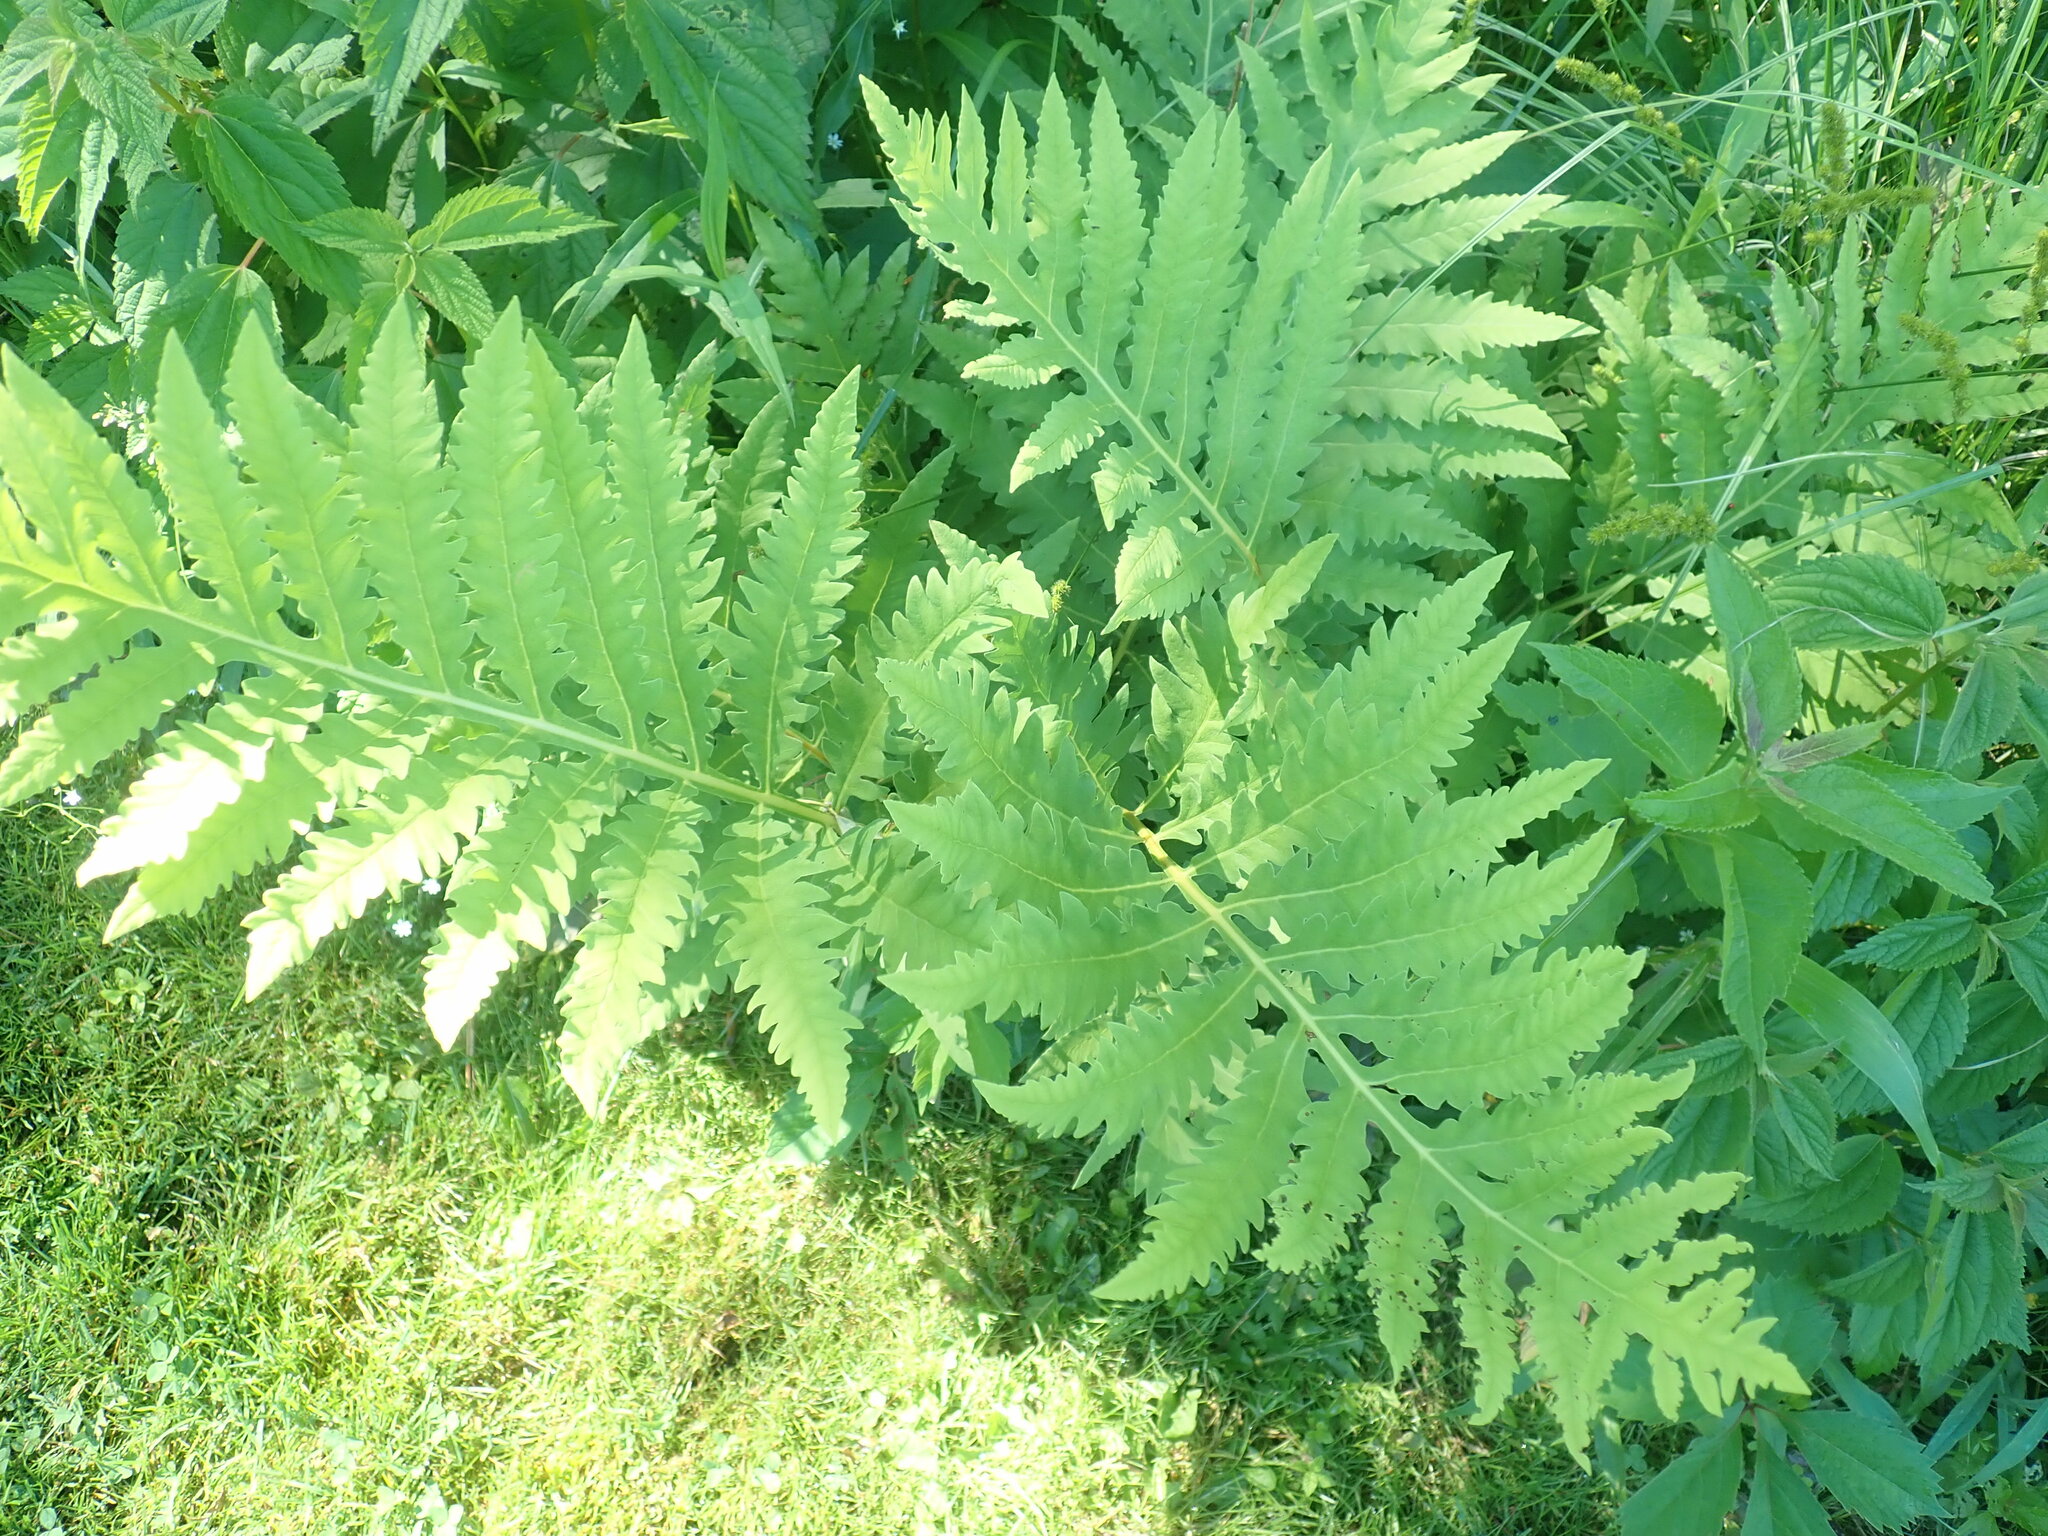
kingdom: Plantae
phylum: Tracheophyta
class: Polypodiopsida
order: Polypodiales
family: Onocleaceae
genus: Onoclea
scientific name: Onoclea sensibilis
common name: Sensitive fern
